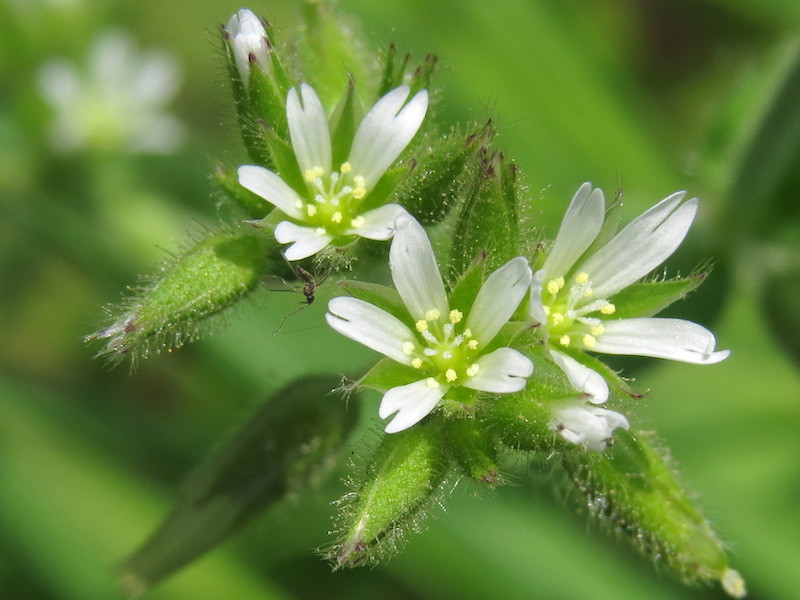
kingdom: Plantae
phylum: Tracheophyta
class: Magnoliopsida
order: Caryophyllales
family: Caryophyllaceae
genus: Cerastium
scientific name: Cerastium glomeratum
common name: Sticky chickweed
